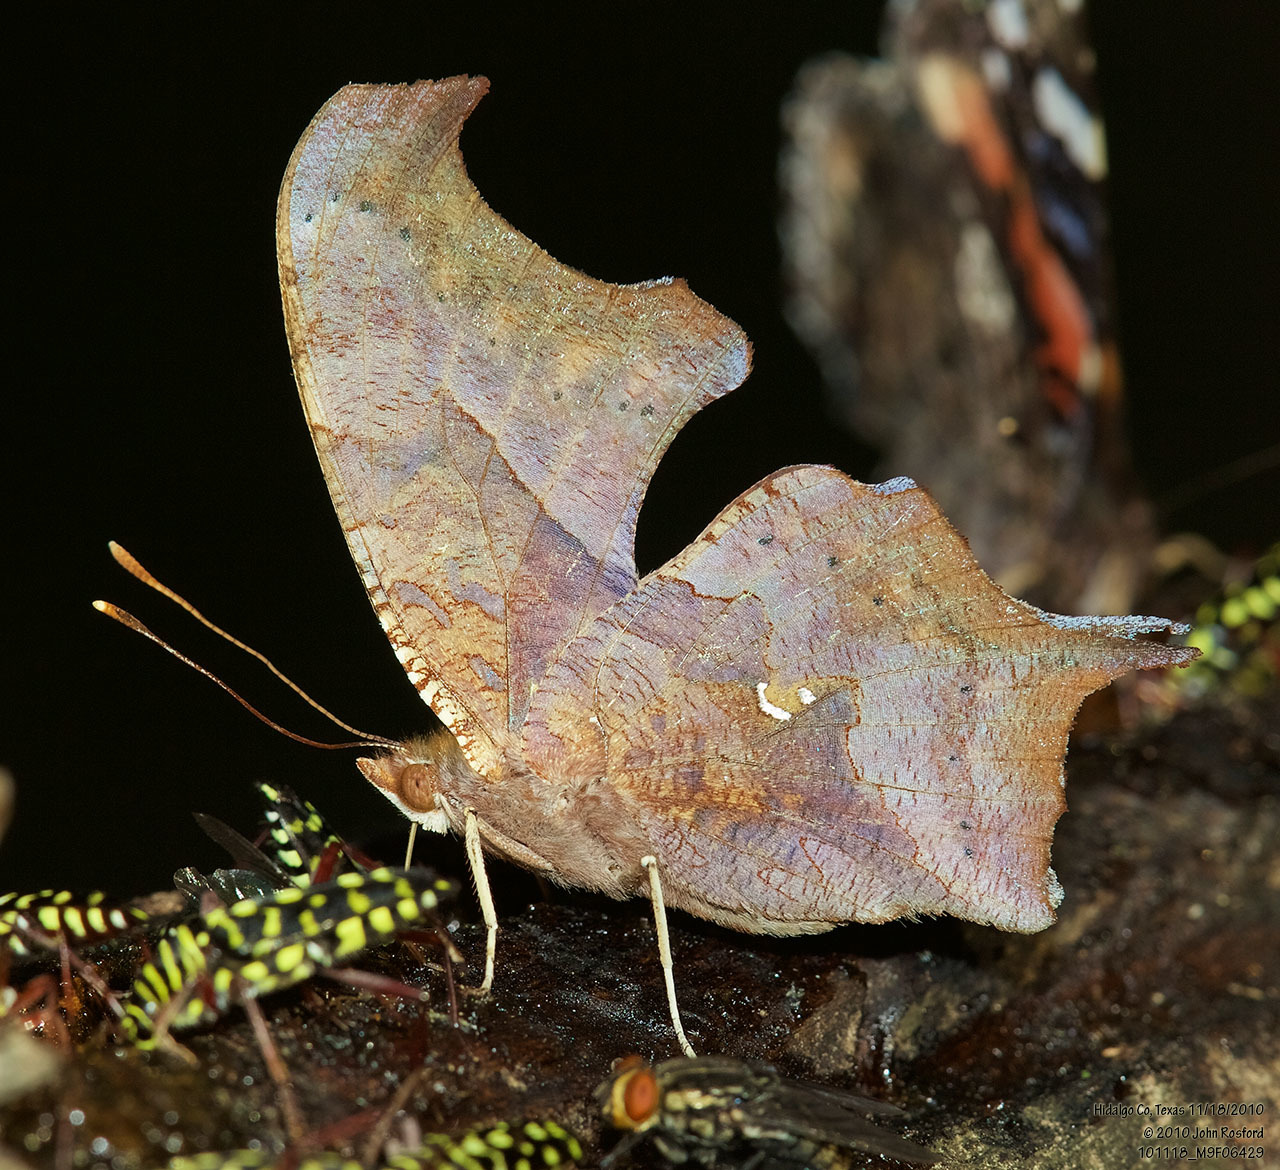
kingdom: Animalia
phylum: Arthropoda
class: Insecta
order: Lepidoptera
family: Nymphalidae
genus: Polygonia
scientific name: Polygonia interrogationis
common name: Question mark
